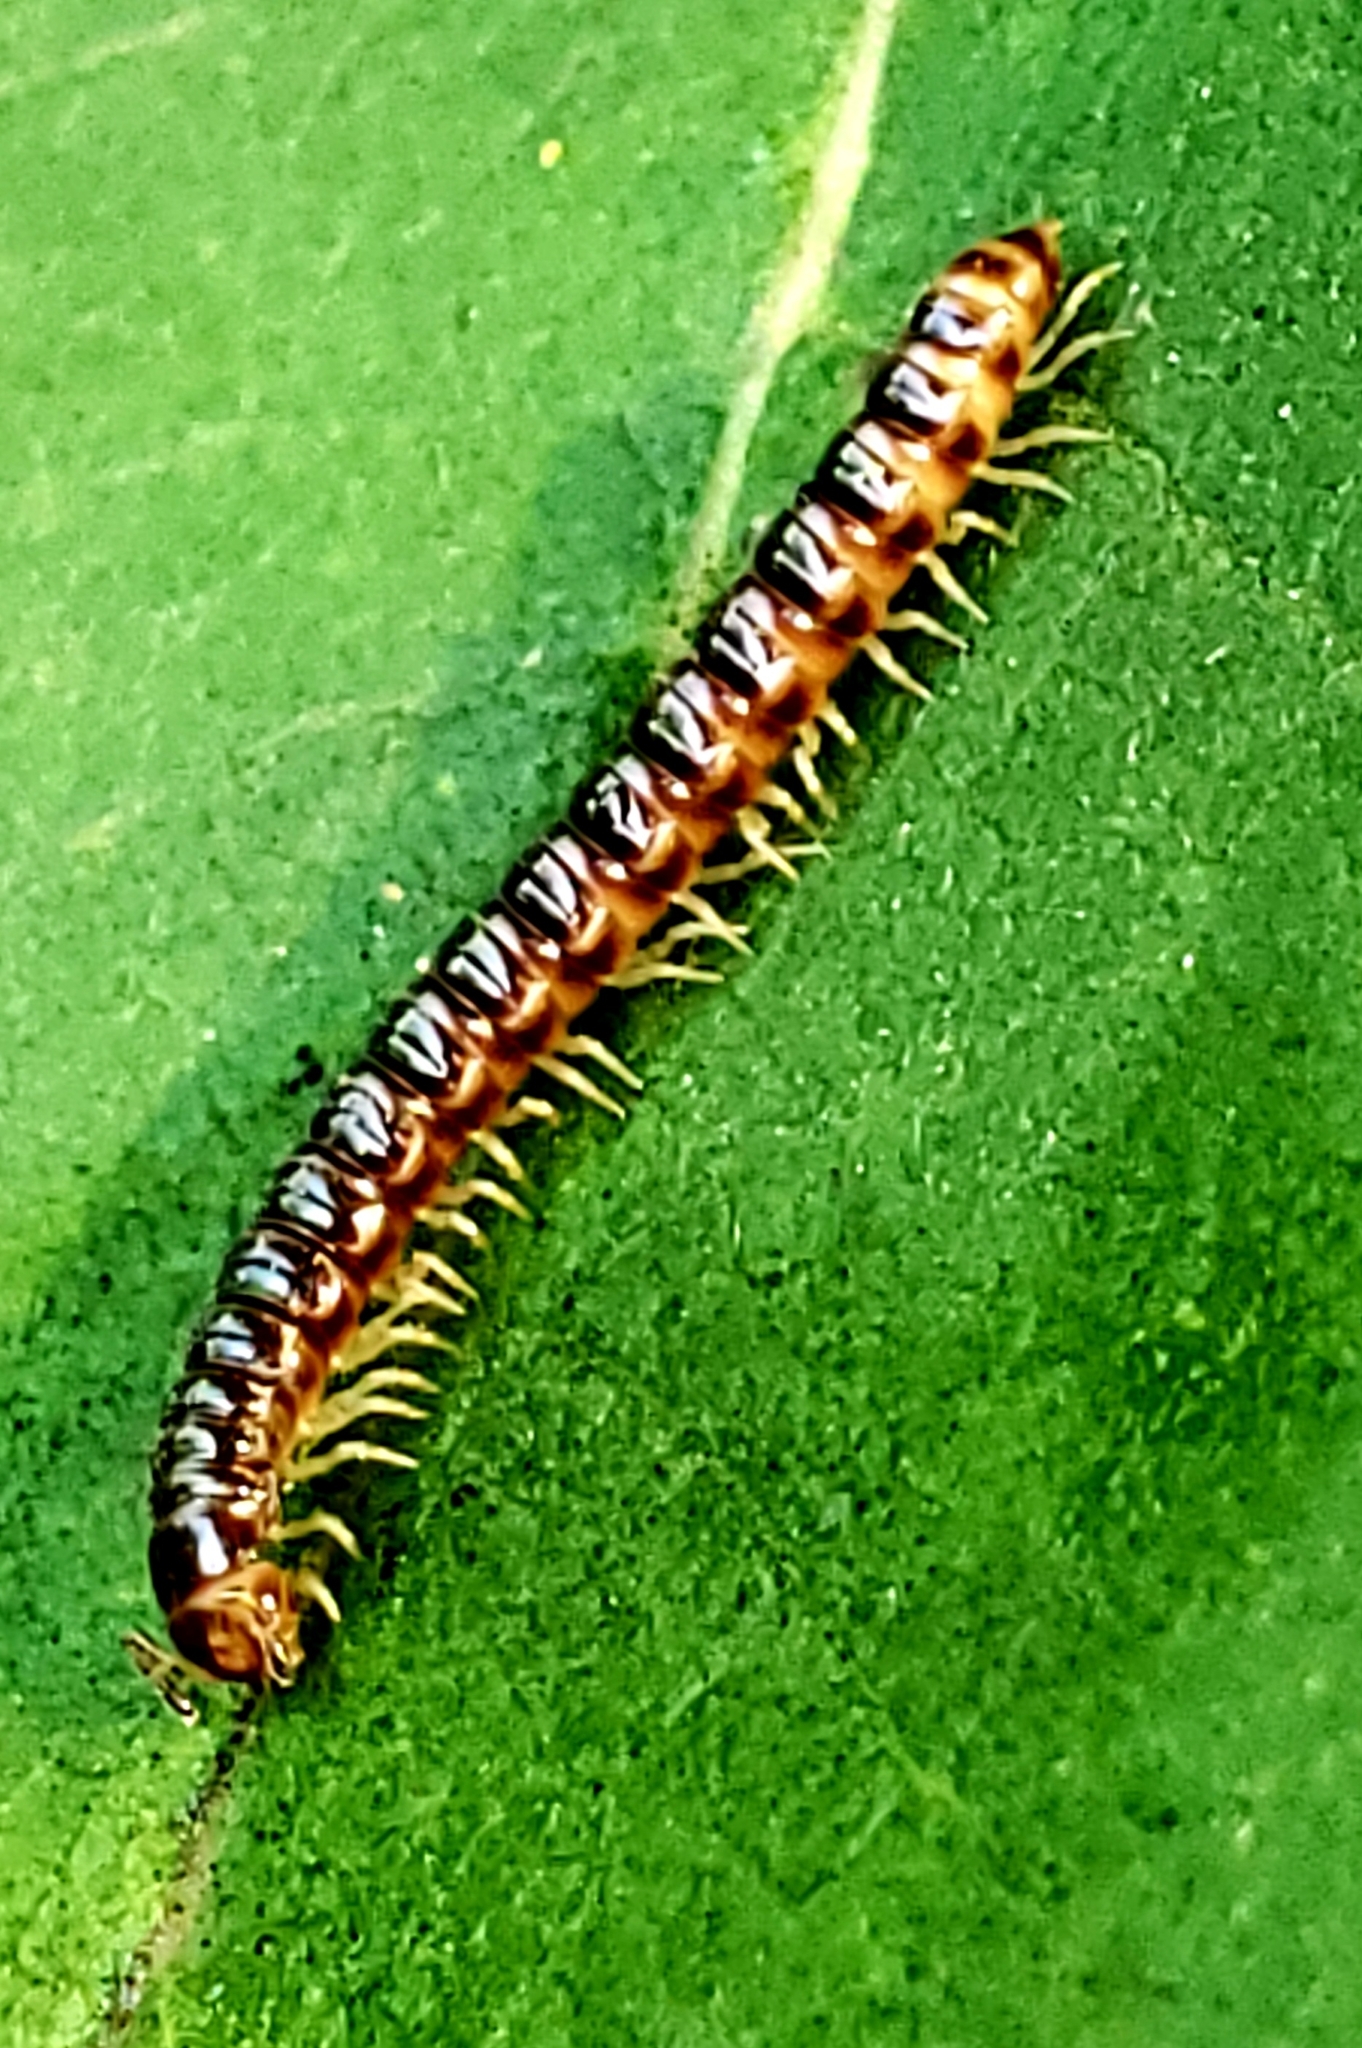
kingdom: Animalia
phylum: Arthropoda
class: Diplopoda
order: Polydesmida
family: Paradoxosomatidae
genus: Oxidus
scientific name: Oxidus gracilis
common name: Greenhouse millipede
